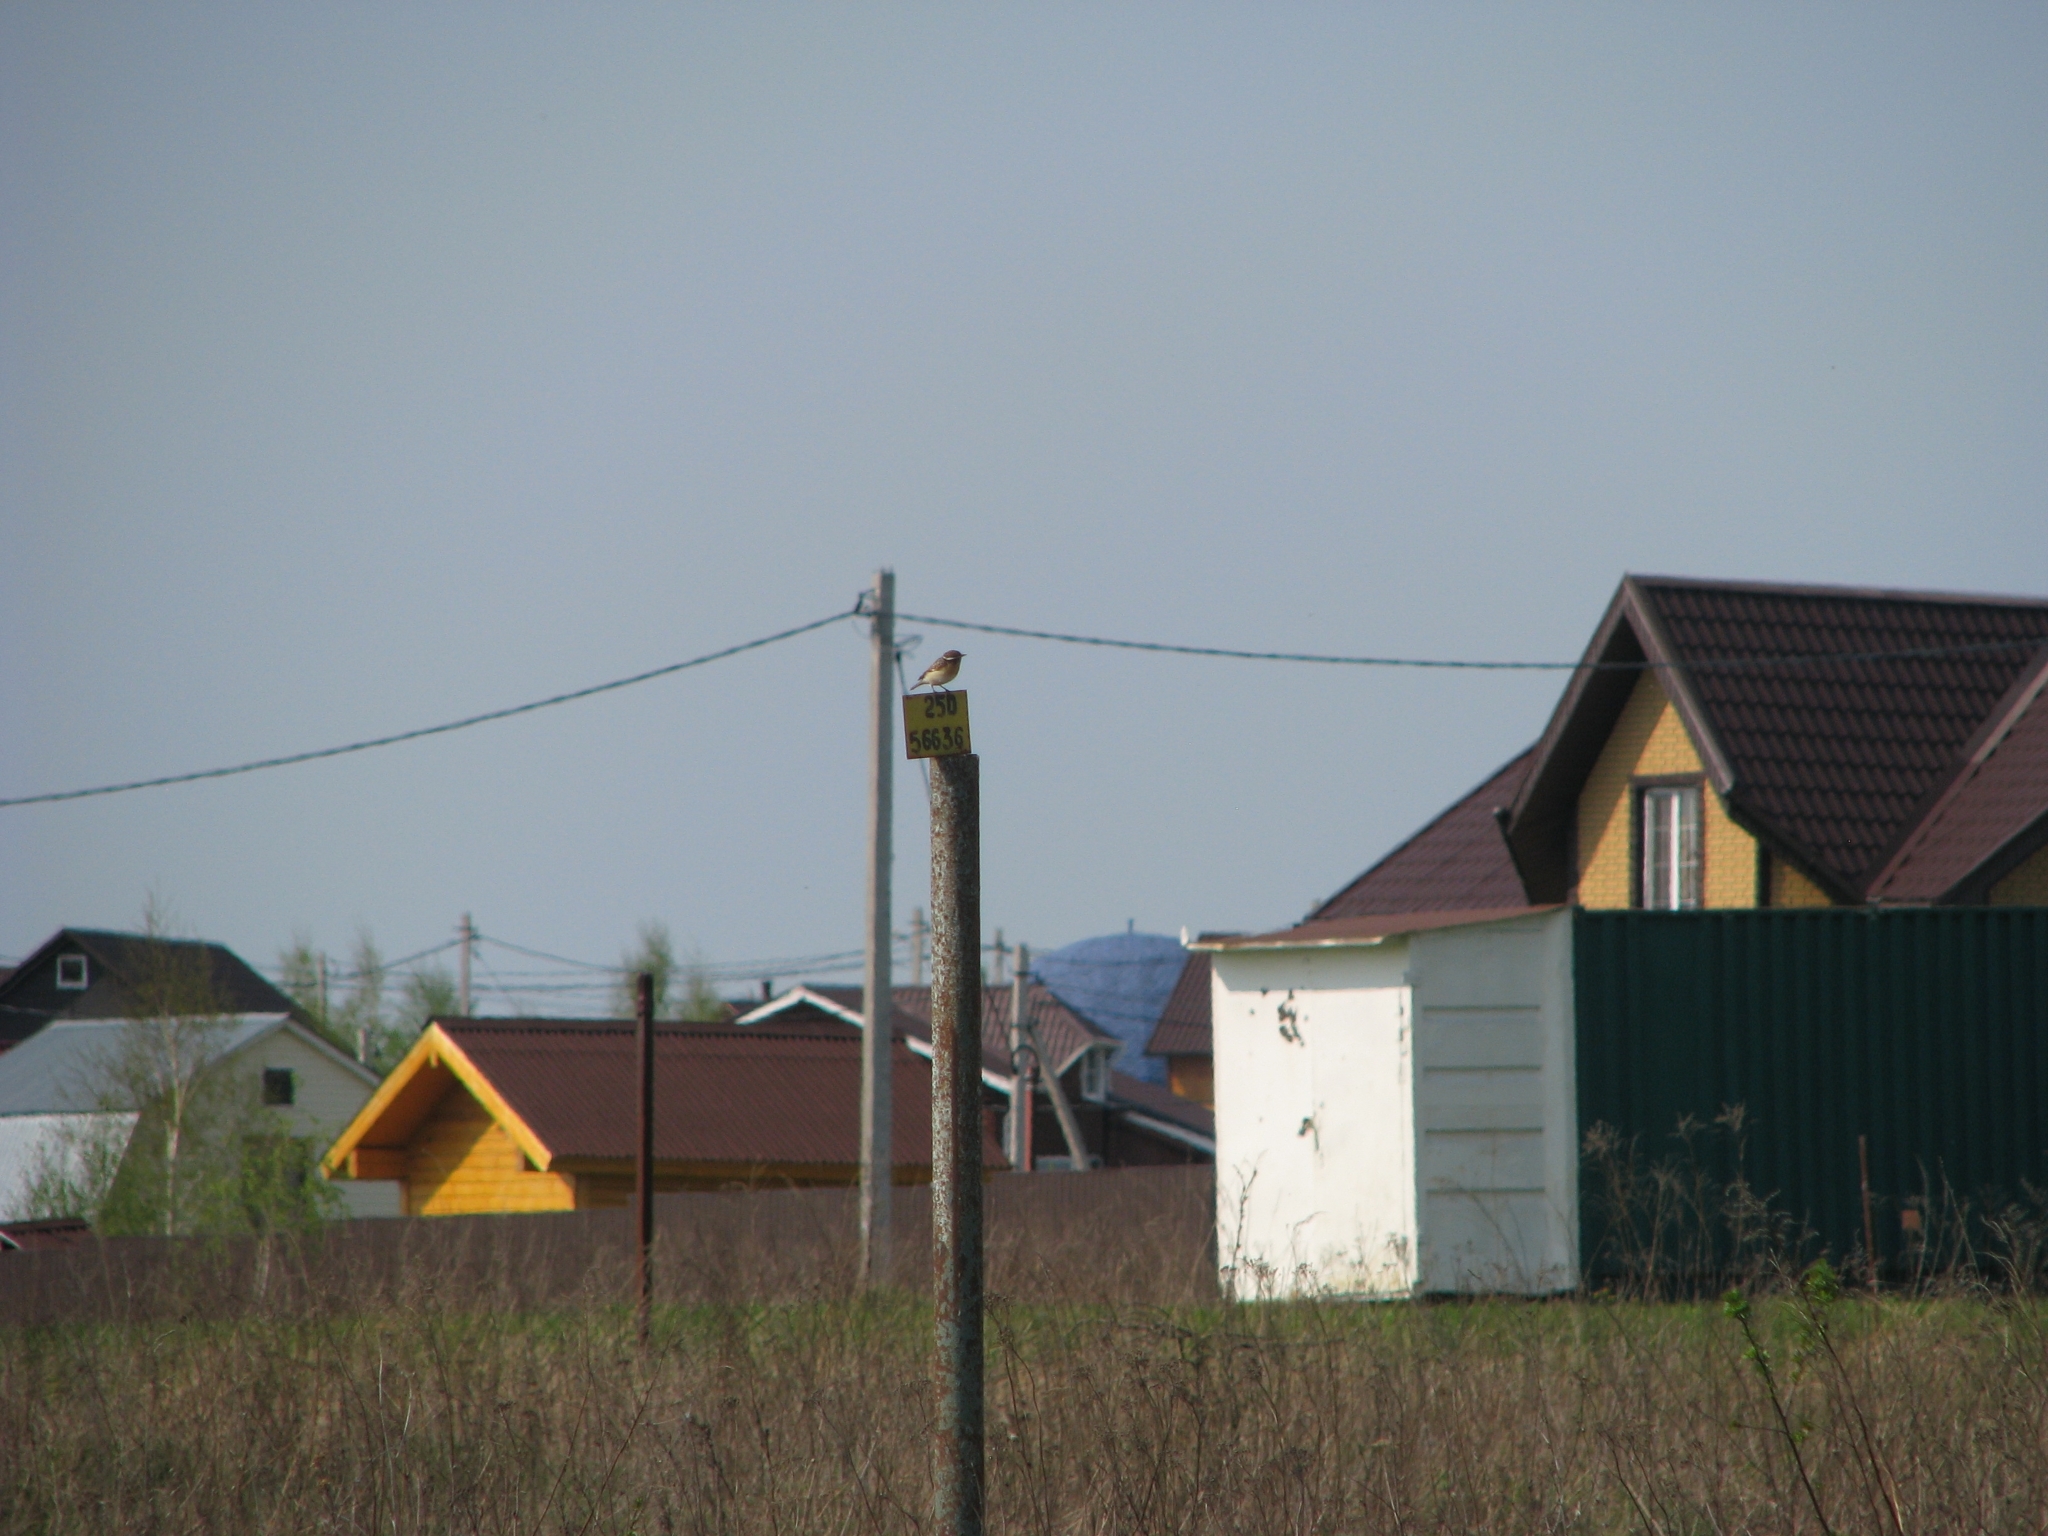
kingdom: Animalia
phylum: Chordata
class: Aves
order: Passeriformes
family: Muscicapidae
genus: Saxicola
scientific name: Saxicola rubetra
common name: Whinchat
